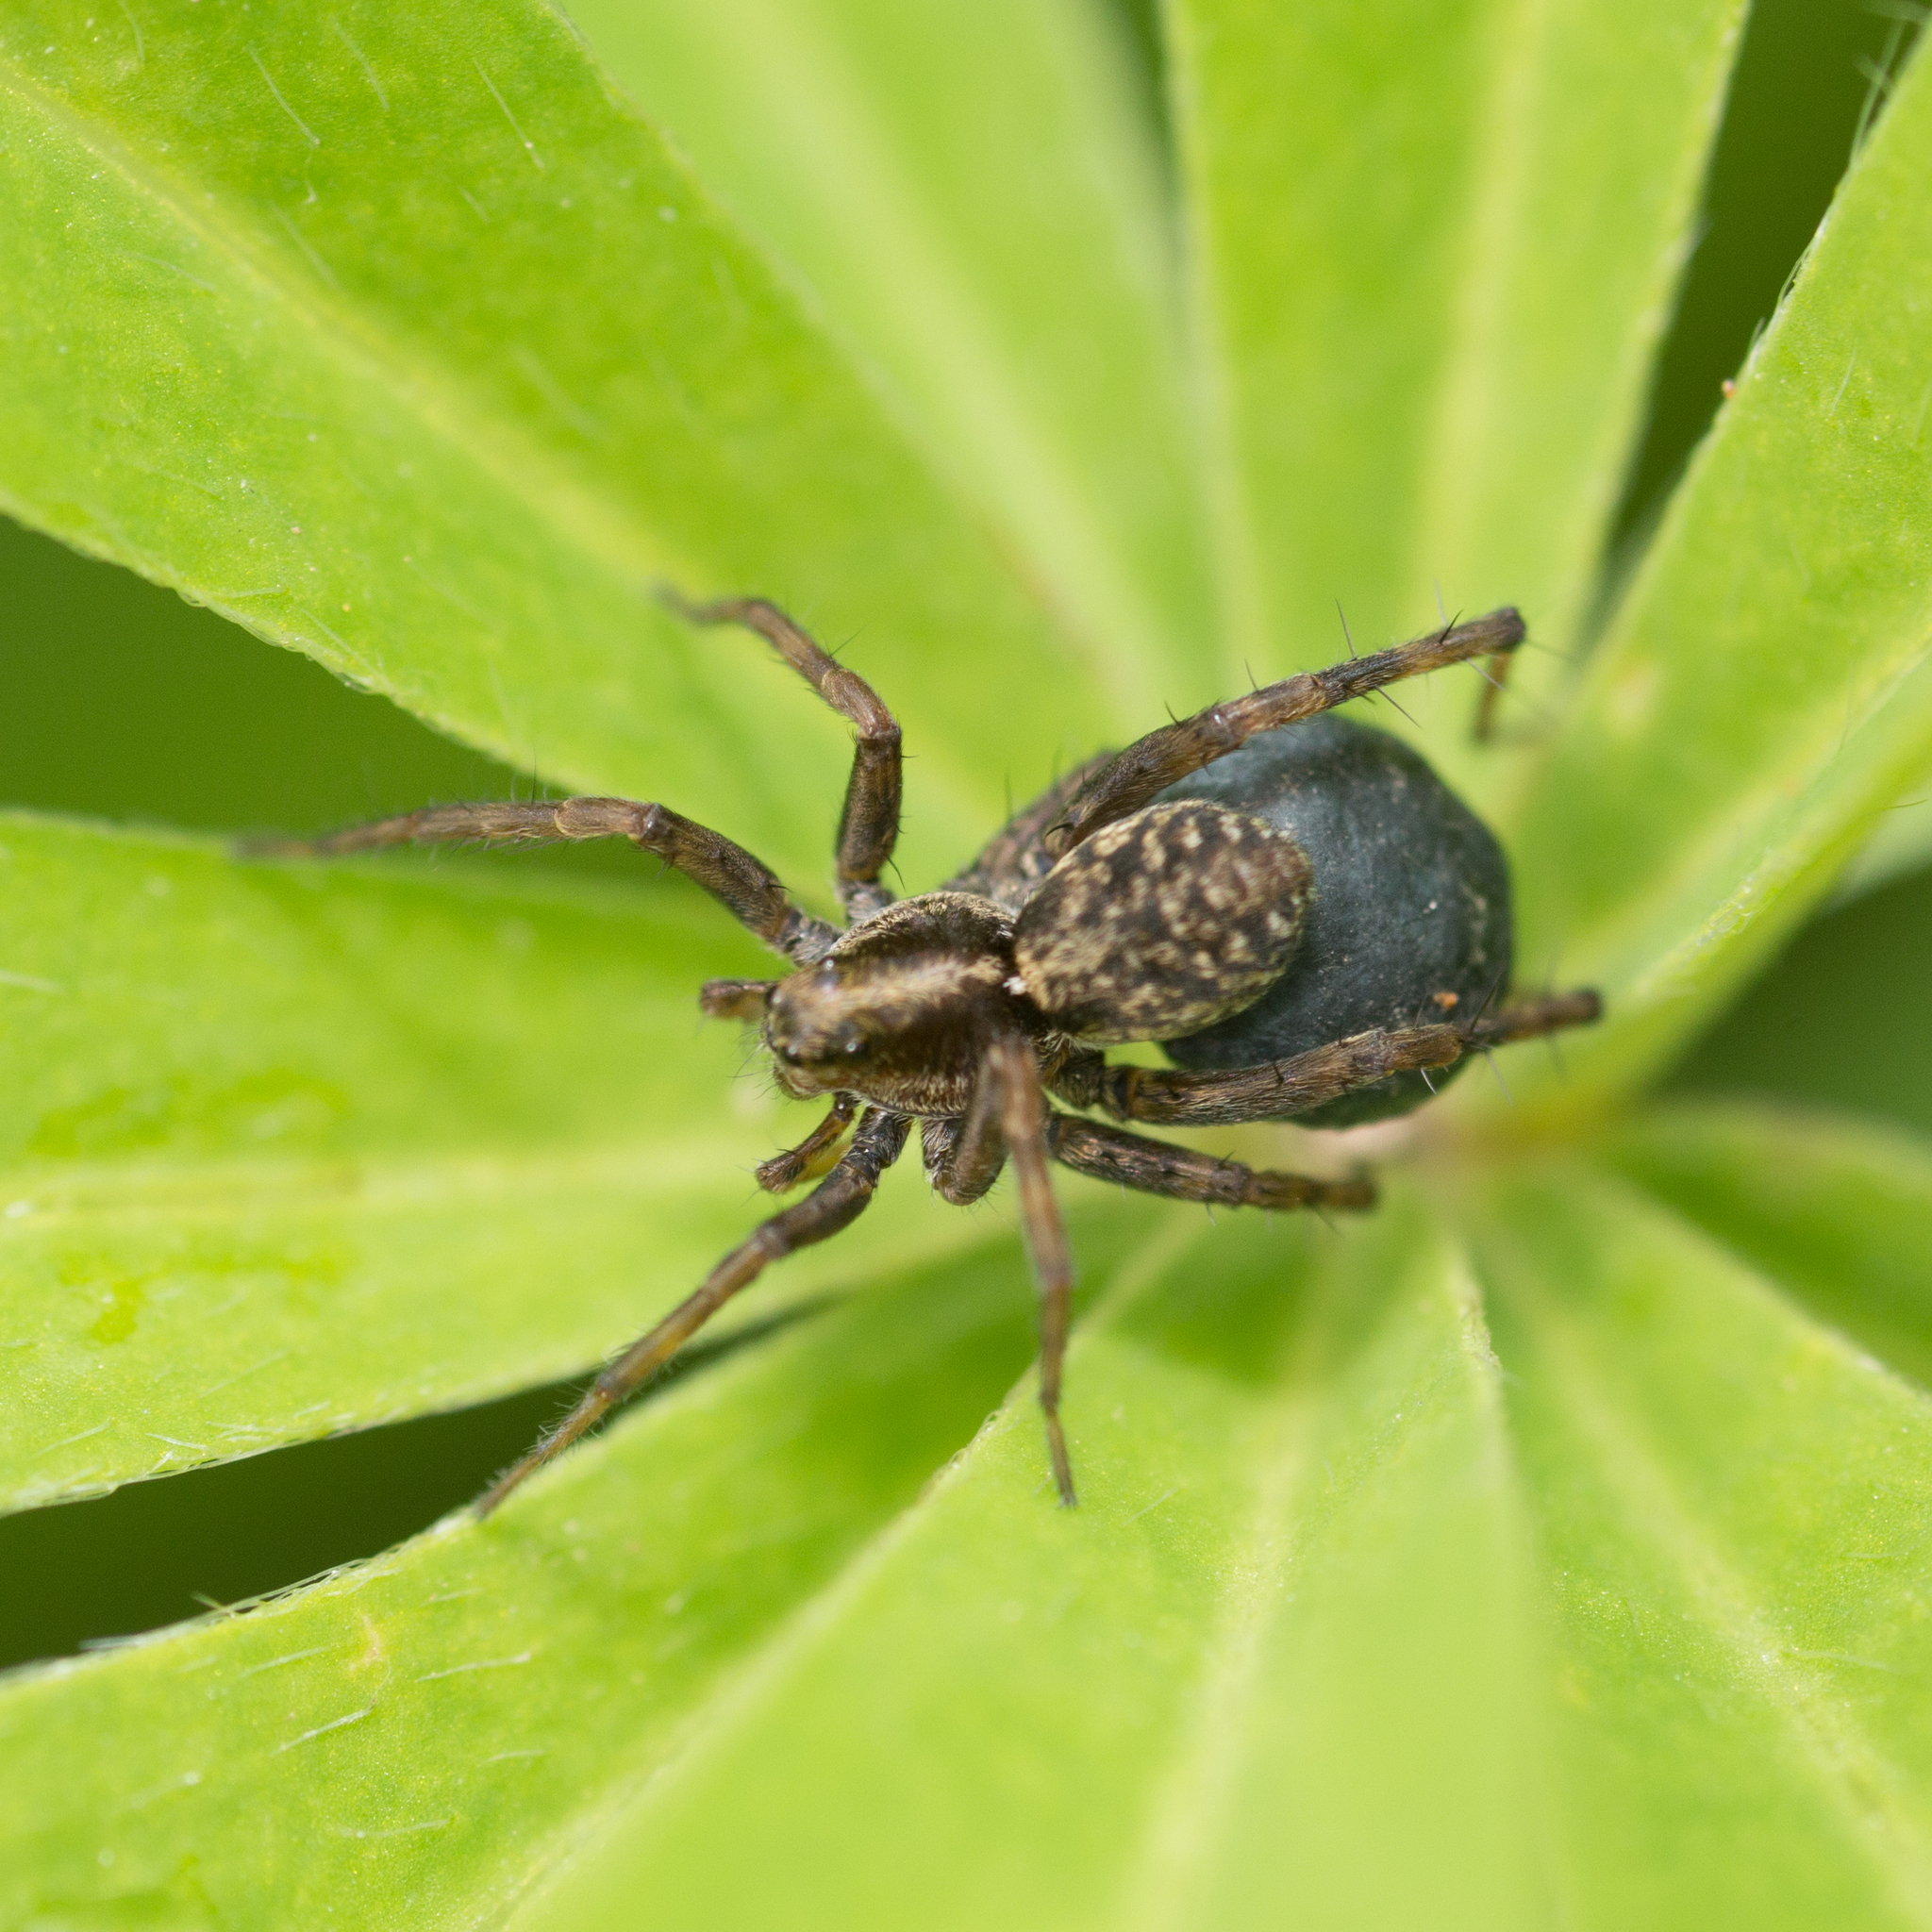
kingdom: Animalia
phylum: Arthropoda
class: Arachnida
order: Araneae
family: Lycosidae
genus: Pardosa
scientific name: Pardosa
